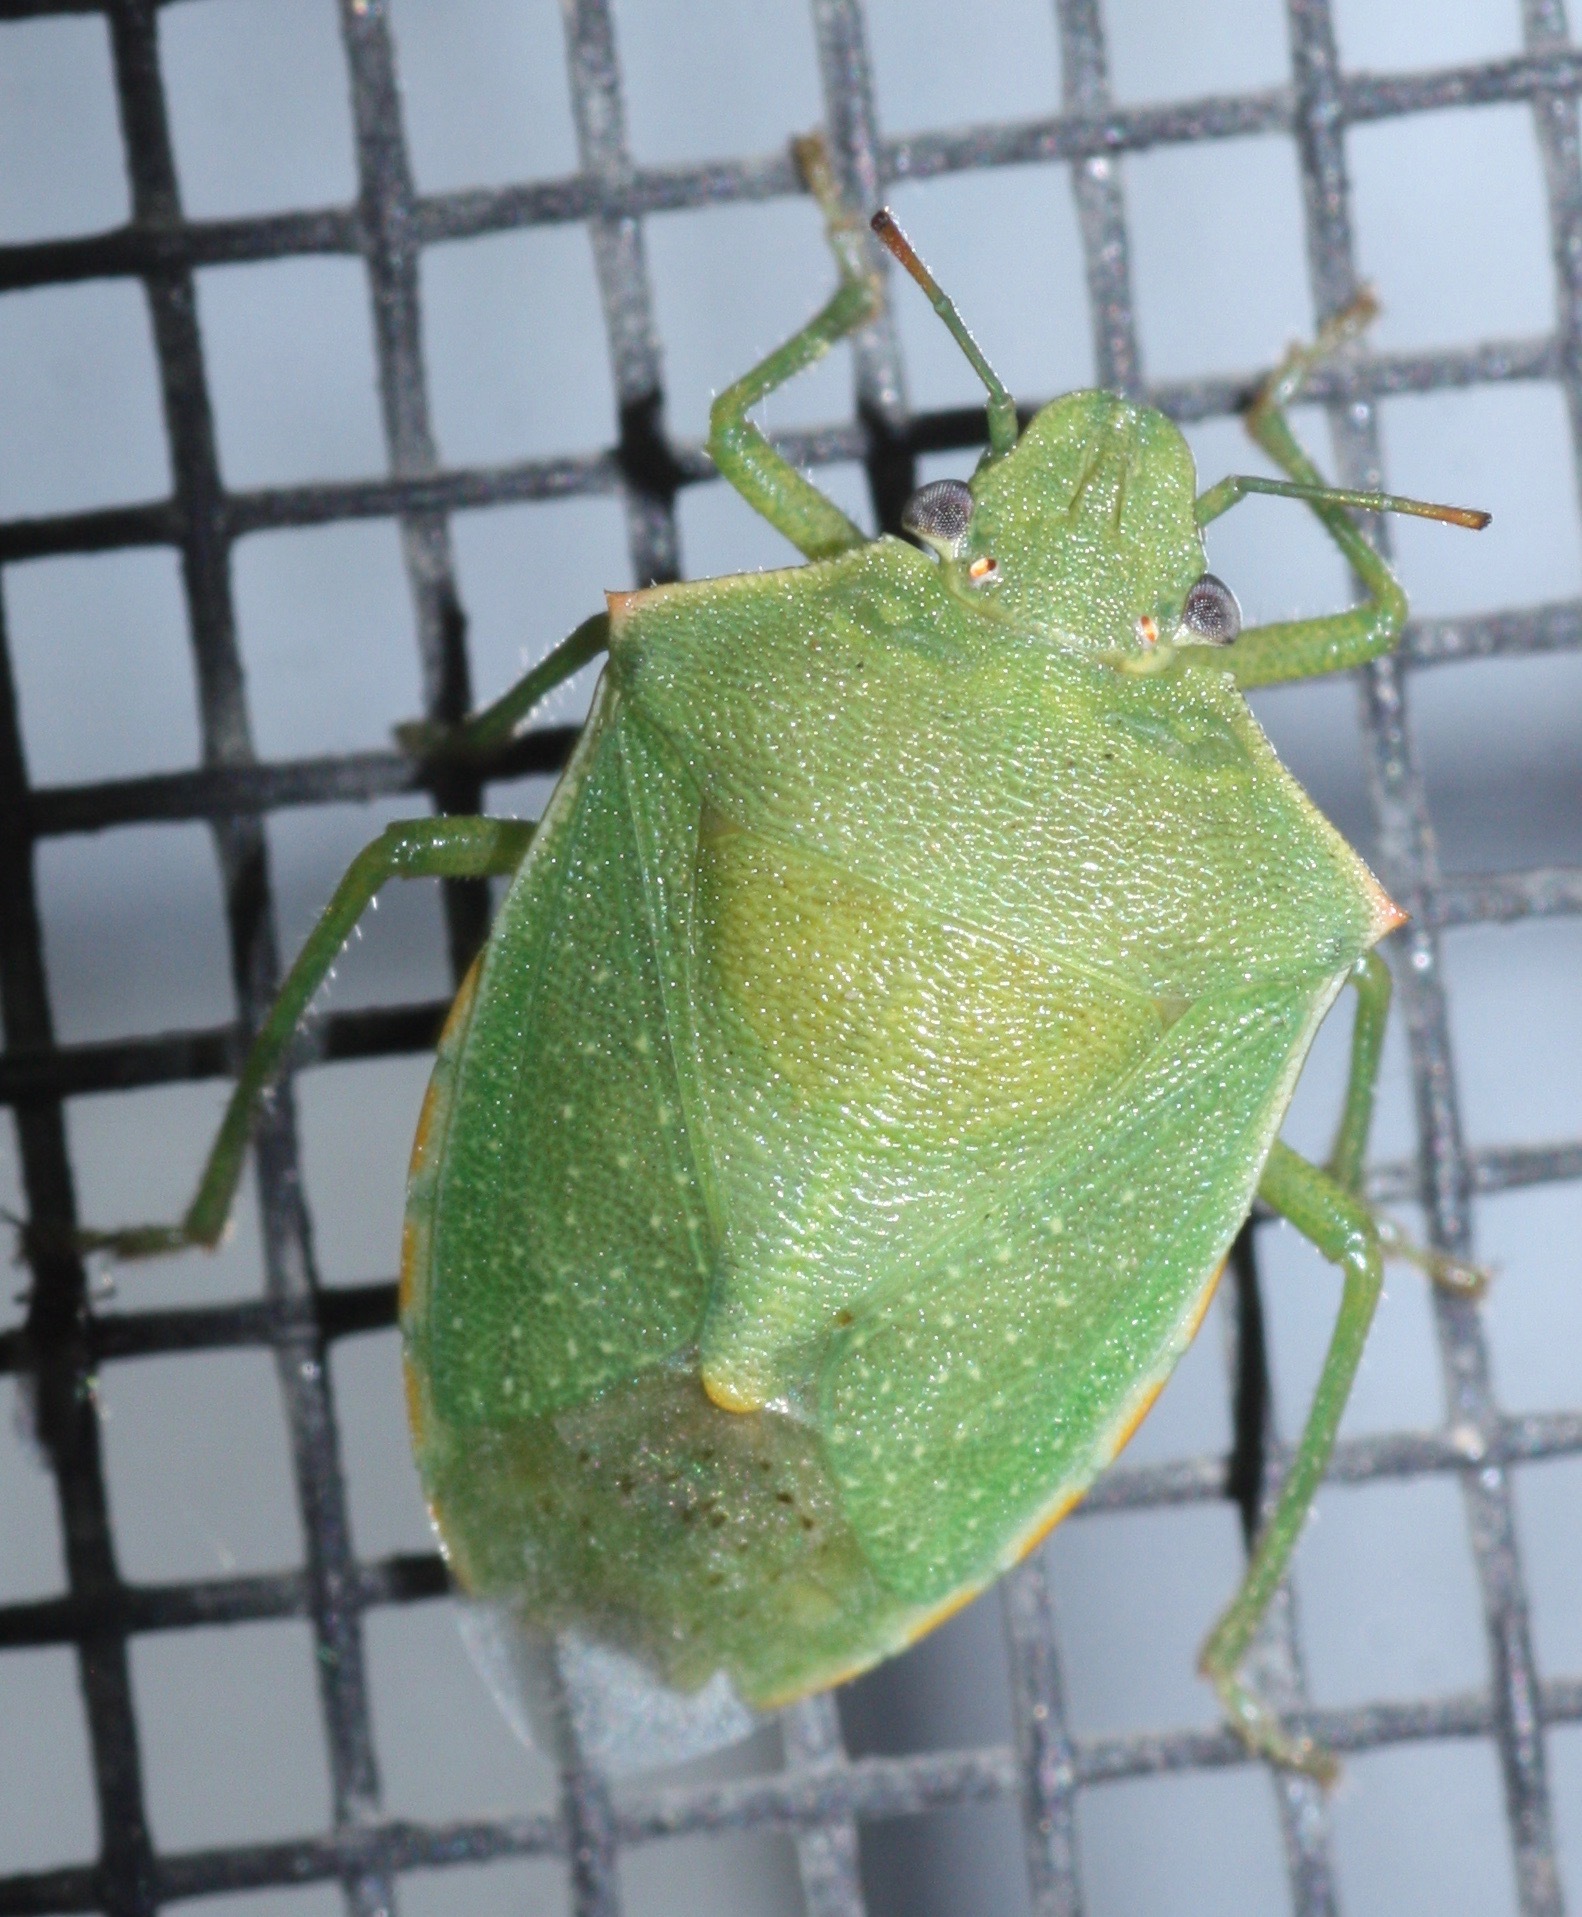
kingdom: Animalia
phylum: Arthropoda
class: Insecta
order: Hemiptera
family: Pentatomidae
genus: Thyanta
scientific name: Thyanta accerra
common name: Stink bug
